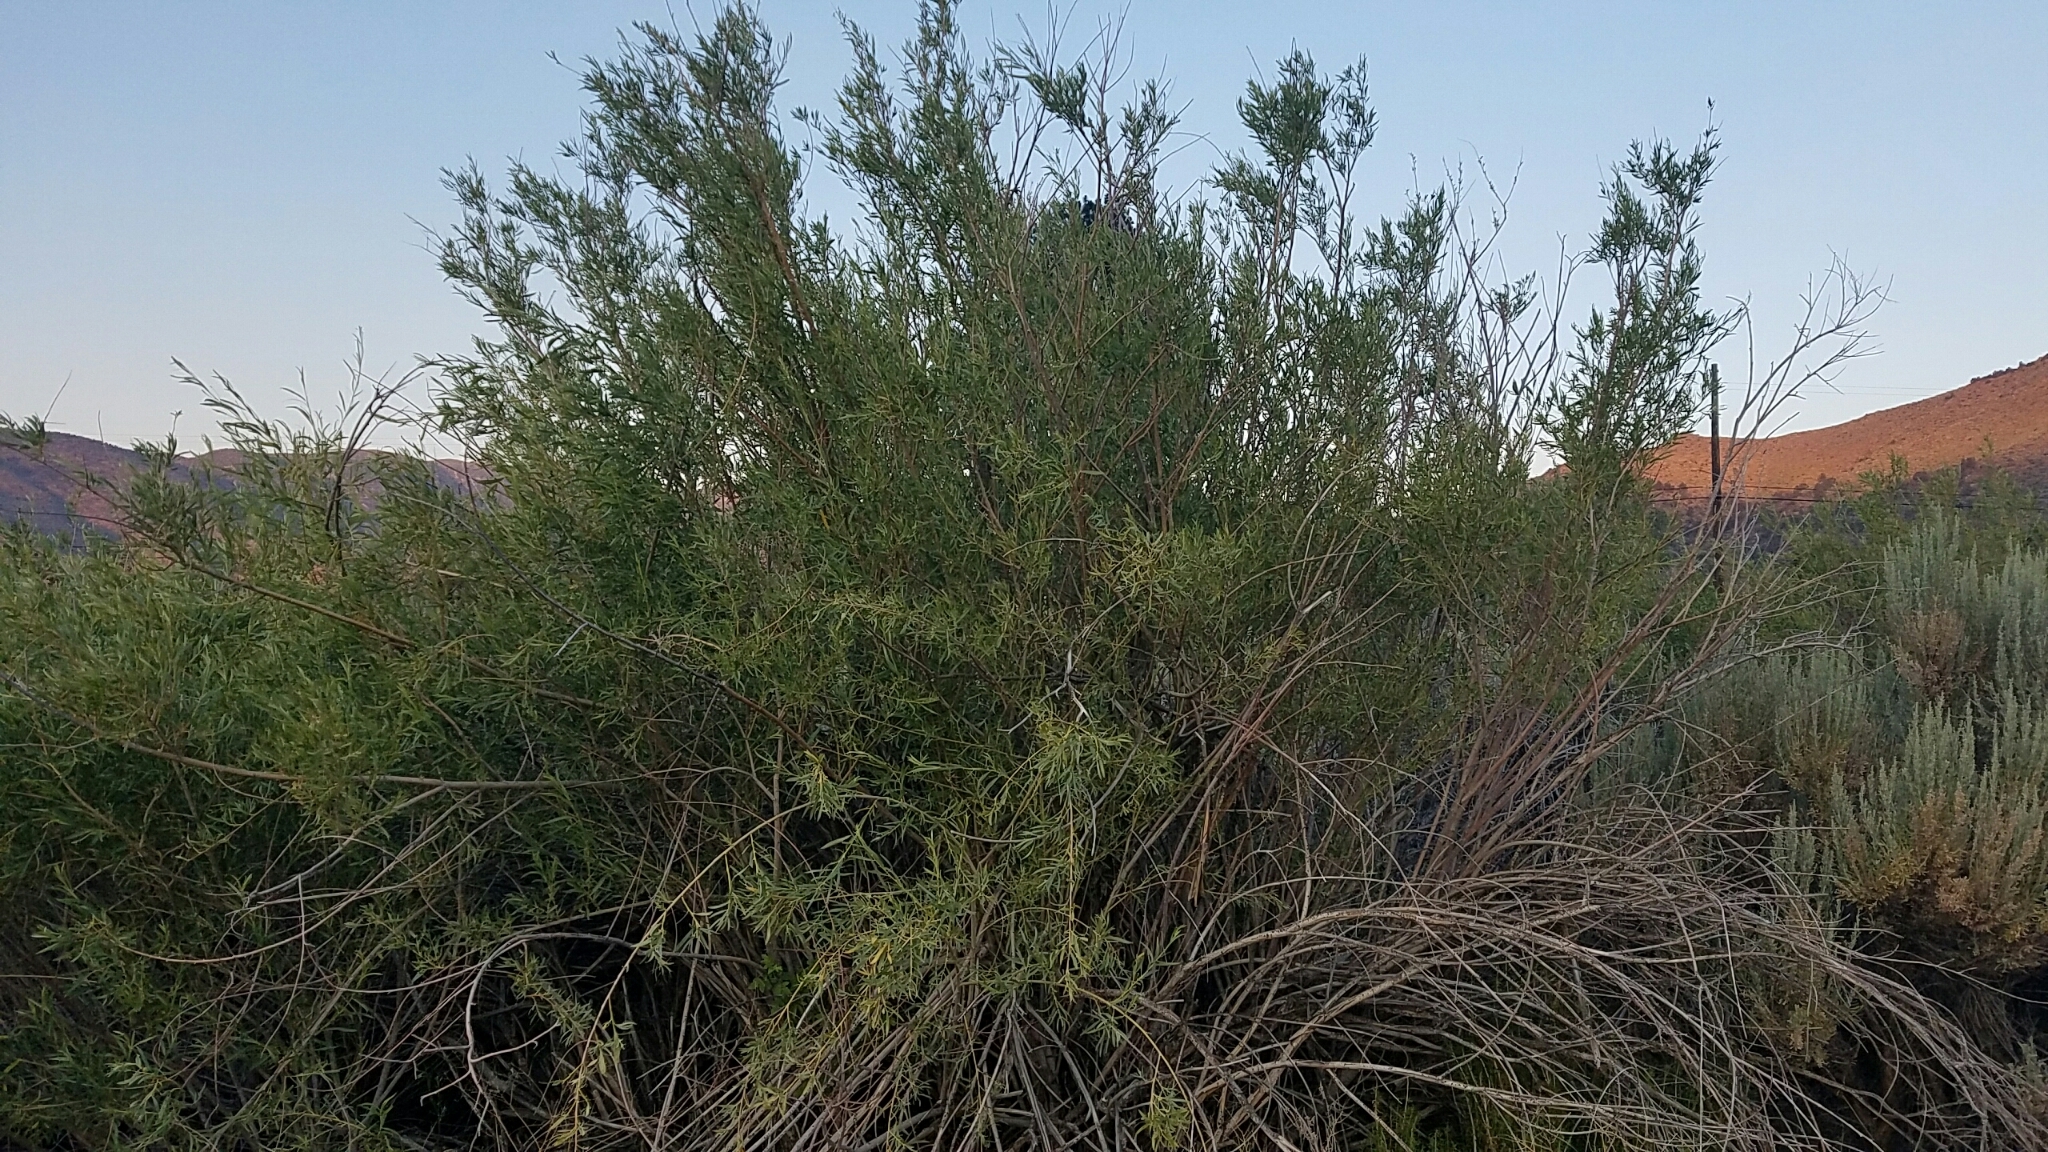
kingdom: Plantae
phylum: Tracheophyta
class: Magnoliopsida
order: Malpighiales
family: Salicaceae
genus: Salix
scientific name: Salix exigua
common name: Coyote willow
